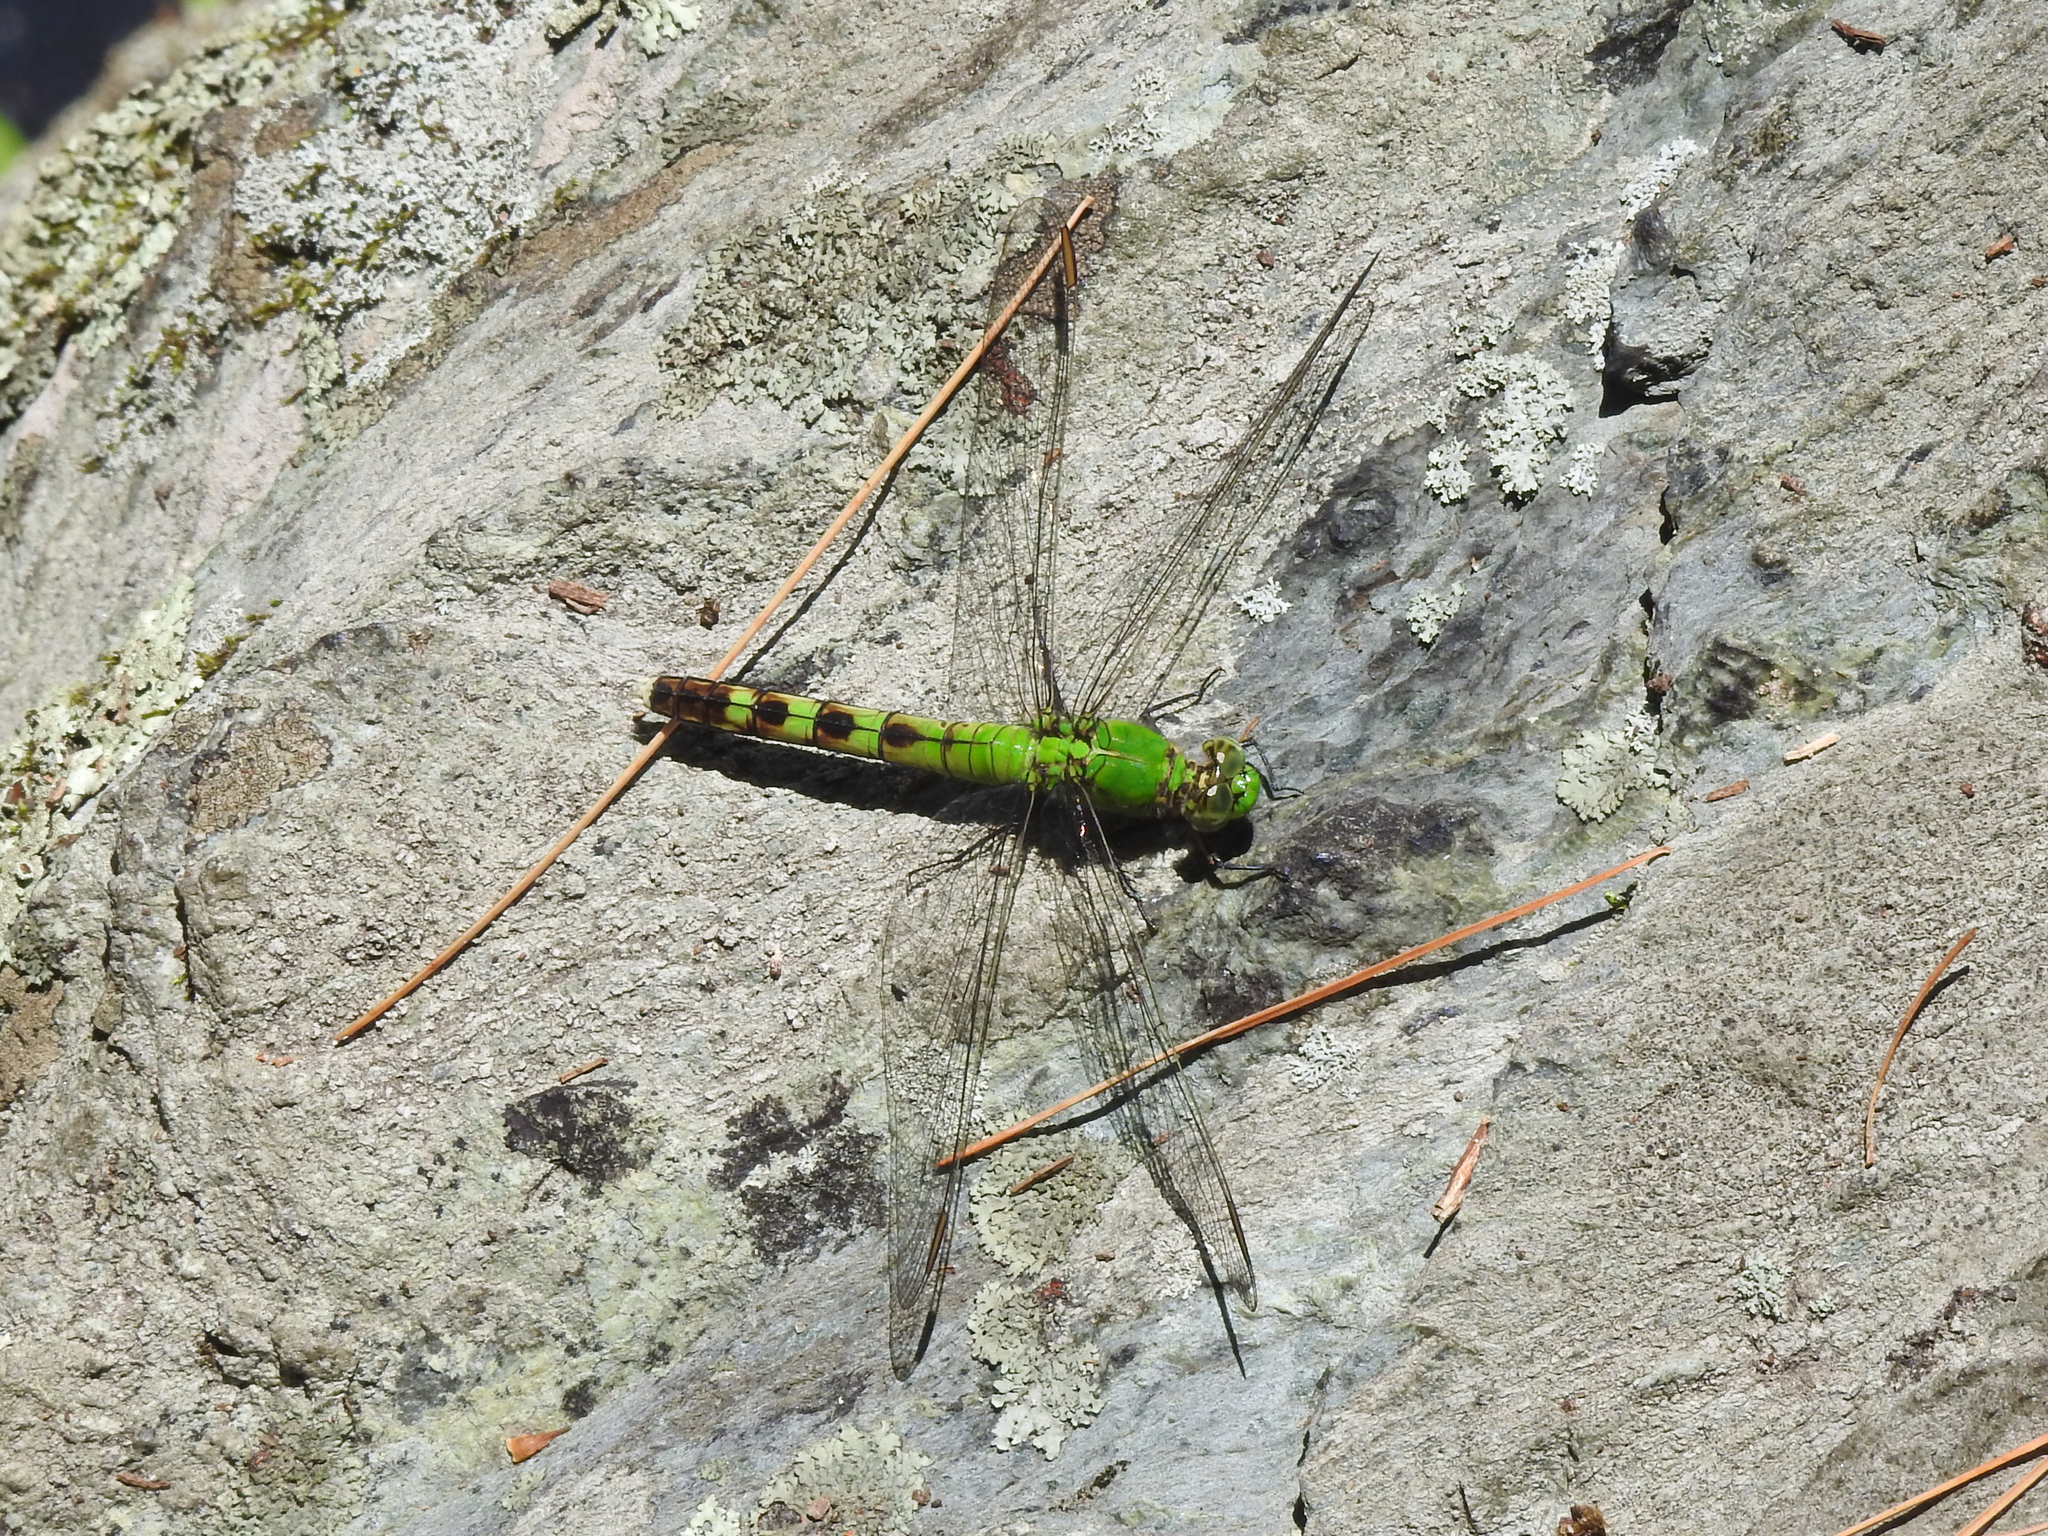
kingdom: Animalia
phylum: Arthropoda
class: Insecta
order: Odonata
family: Libellulidae
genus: Erythemis
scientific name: Erythemis simplicicollis
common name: Eastern pondhawk
